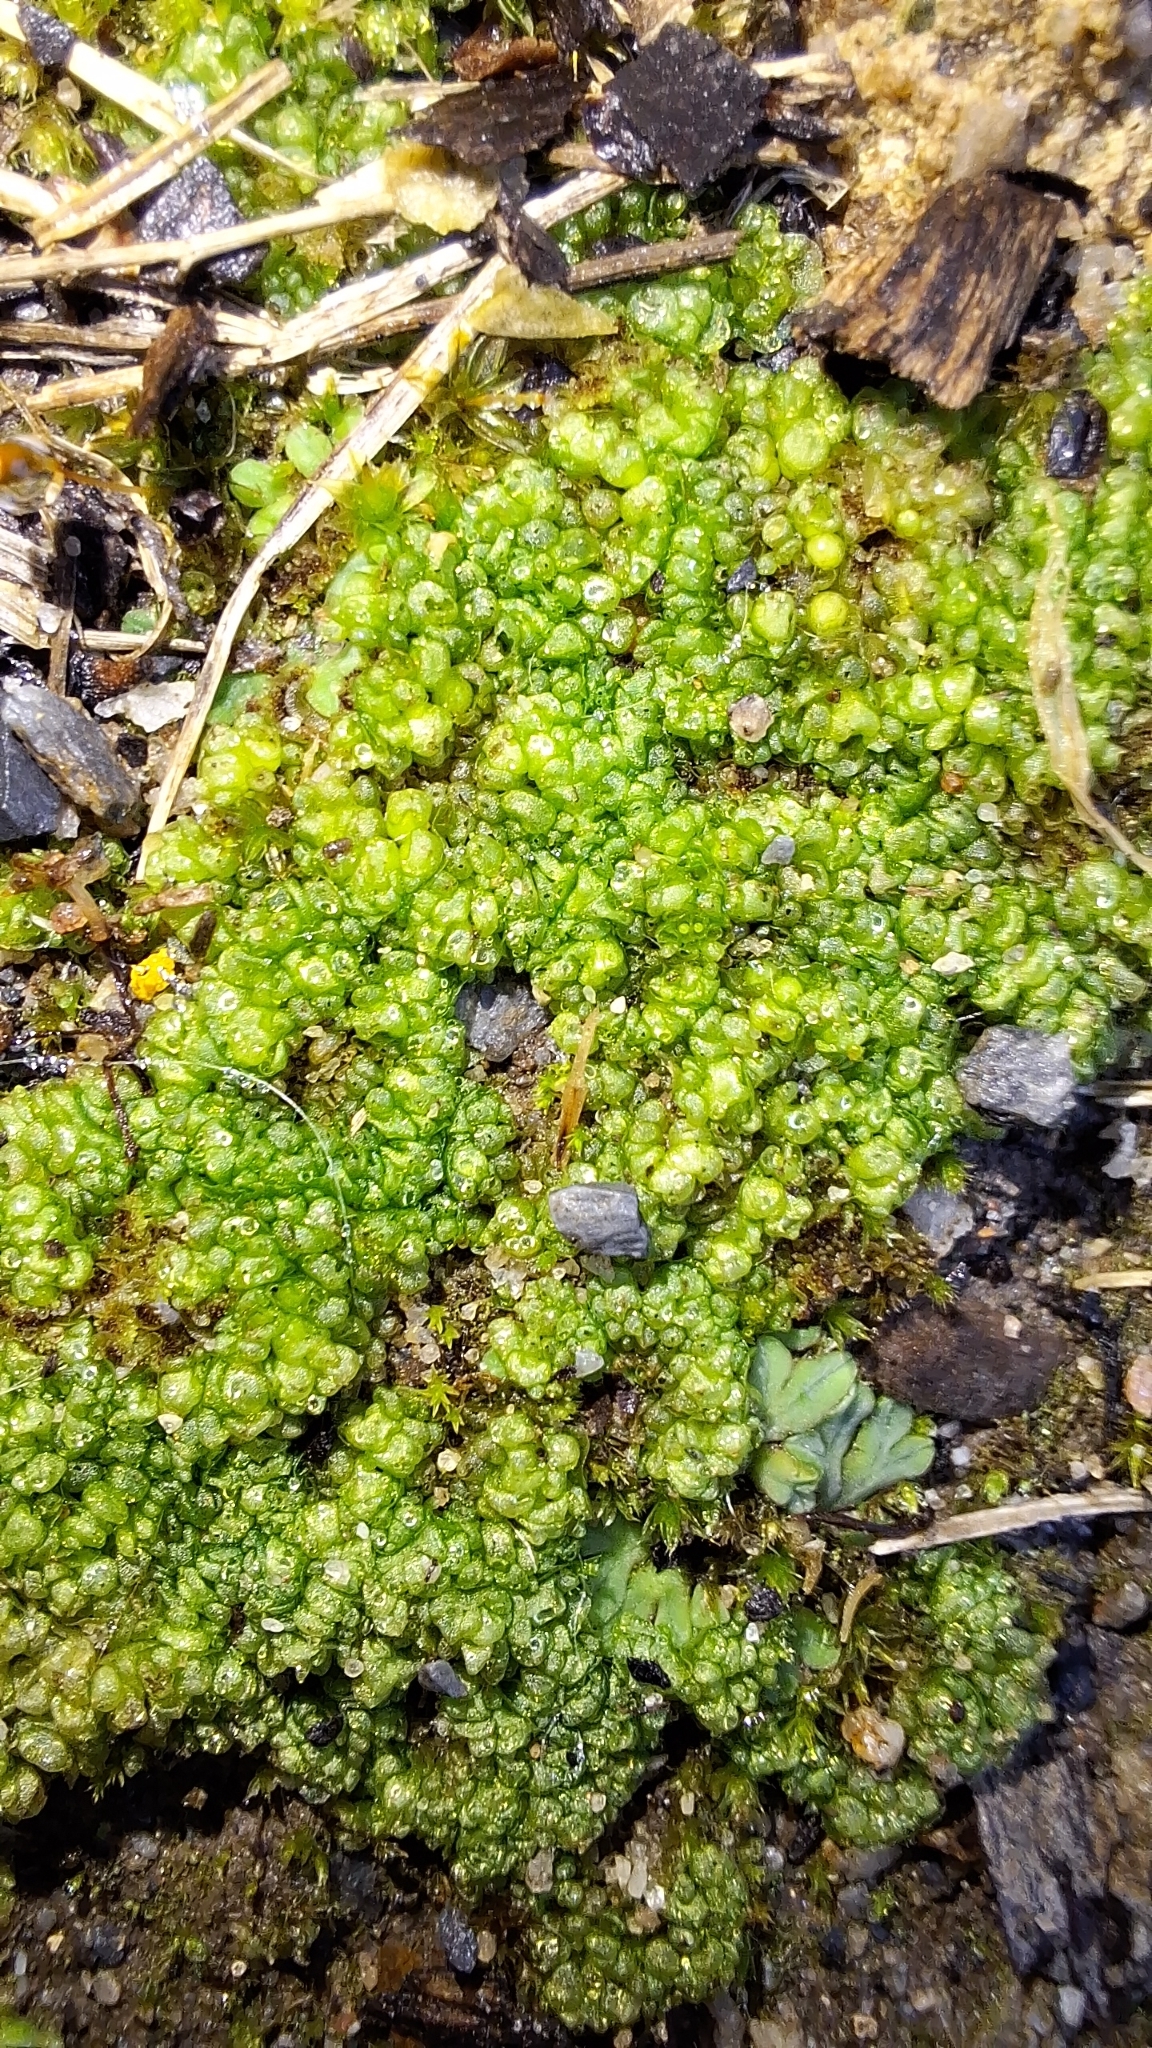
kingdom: Plantae
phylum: Marchantiophyta
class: Marchantiopsida
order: Sphaerocarpales
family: Sphaerocarpaceae
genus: Sphaerocarpos
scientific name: Sphaerocarpos texanus
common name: Texas balloonwort
